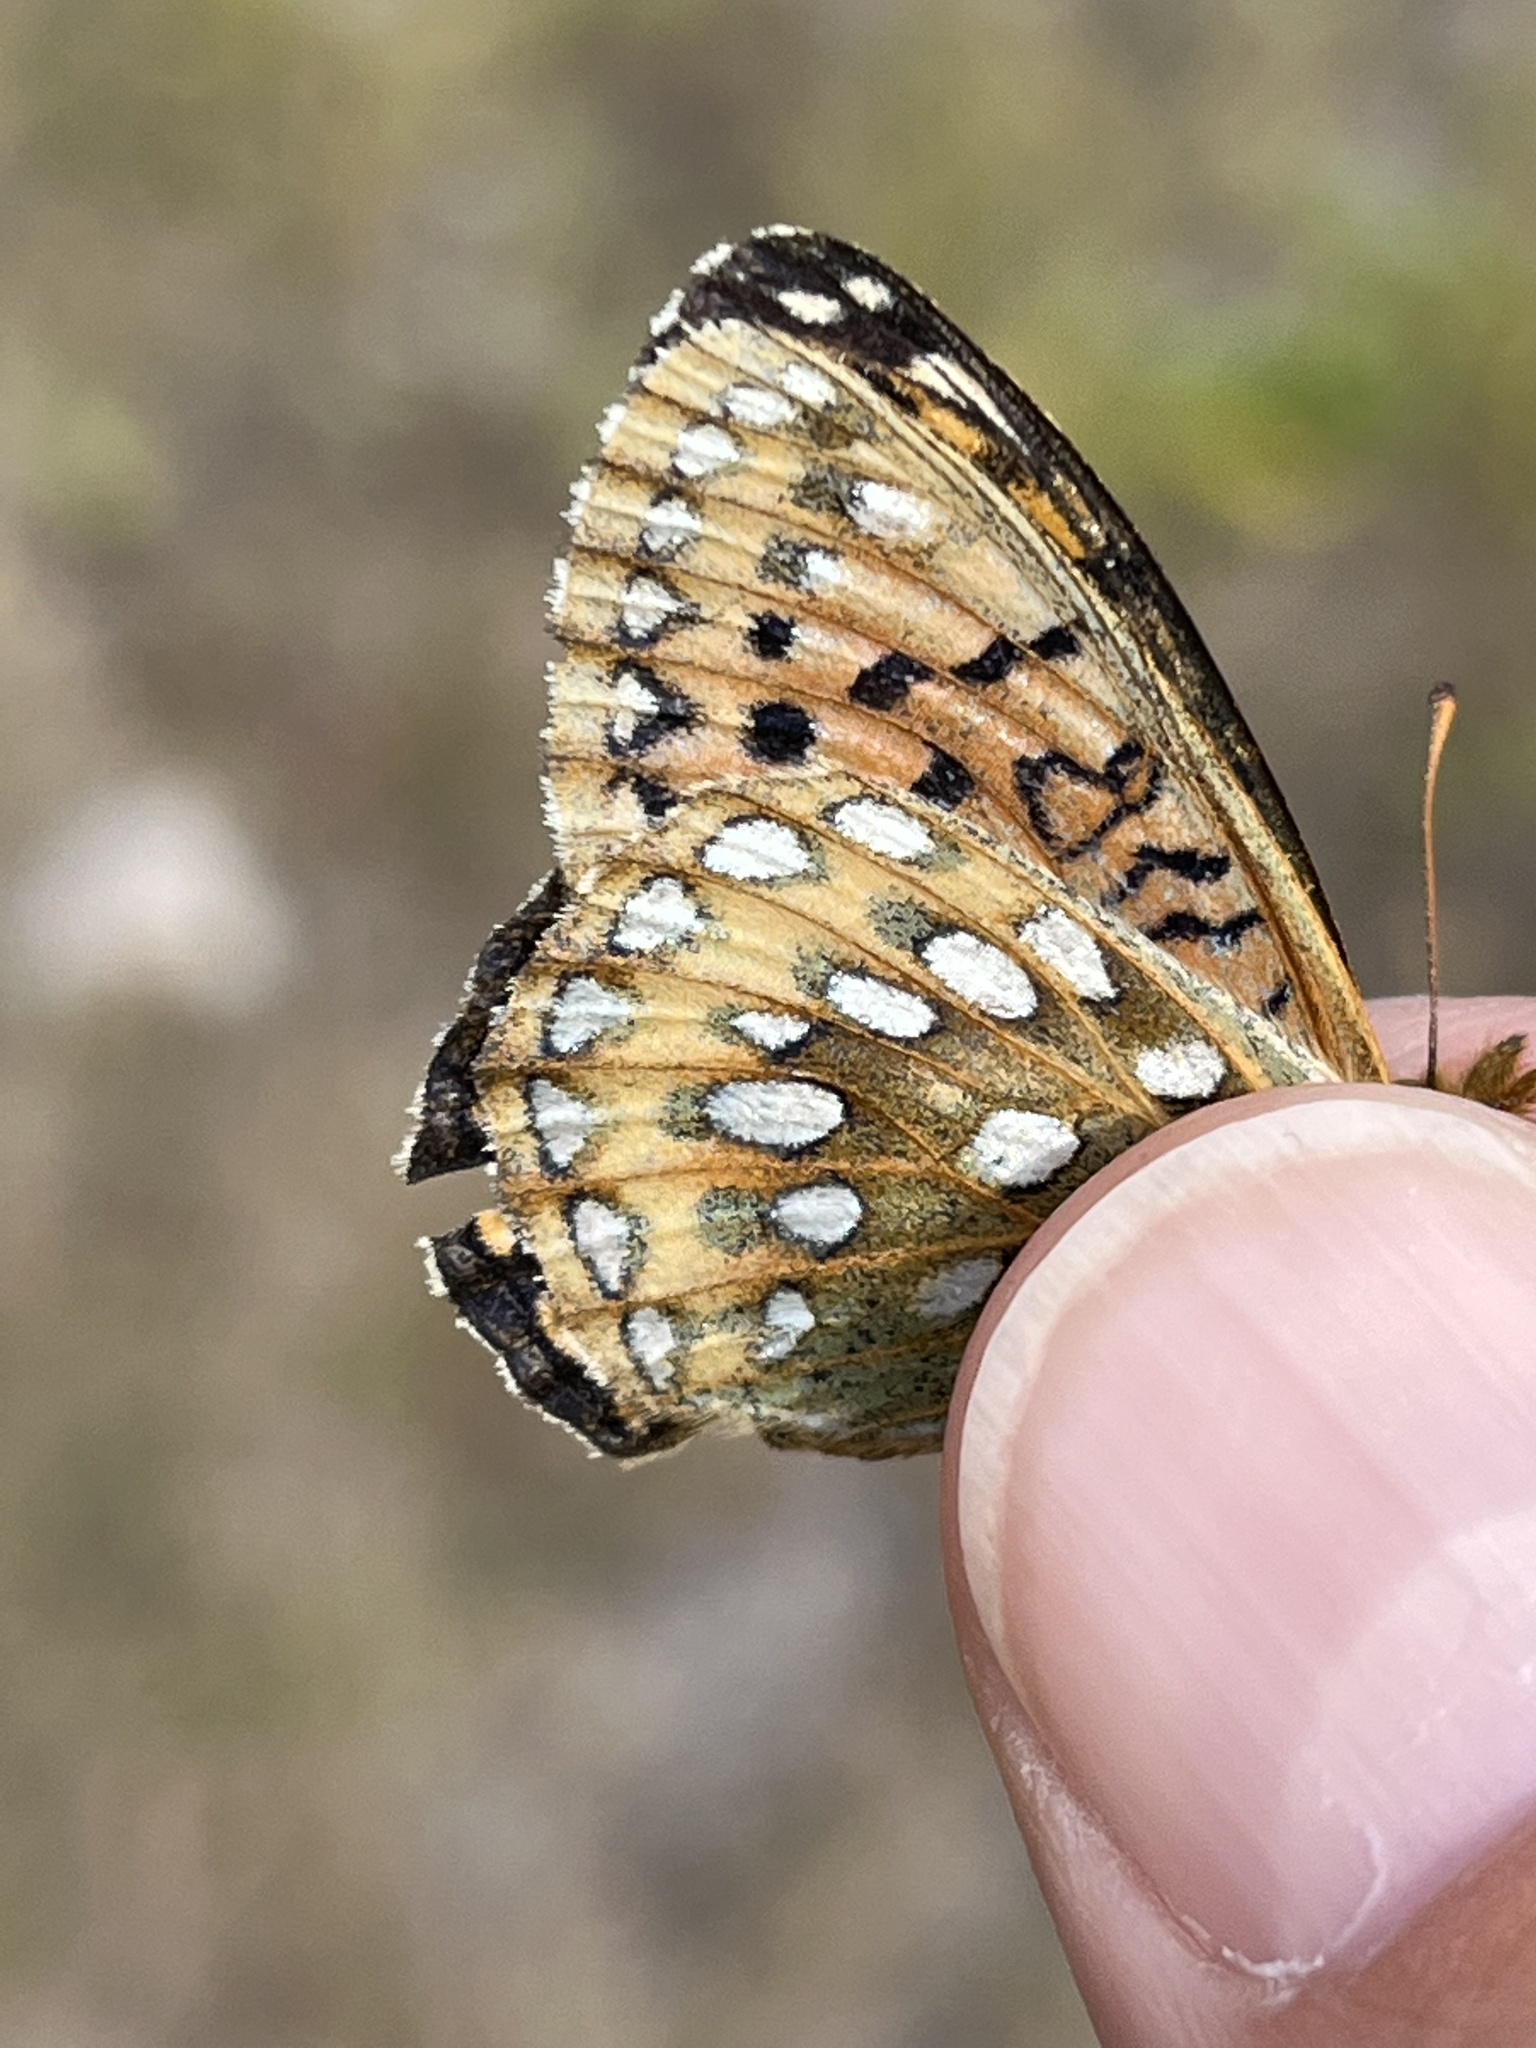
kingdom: Animalia
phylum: Arthropoda
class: Insecta
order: Lepidoptera
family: Nymphalidae
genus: Speyeria
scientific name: Speyeria mormonia
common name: Mormon fritillary
